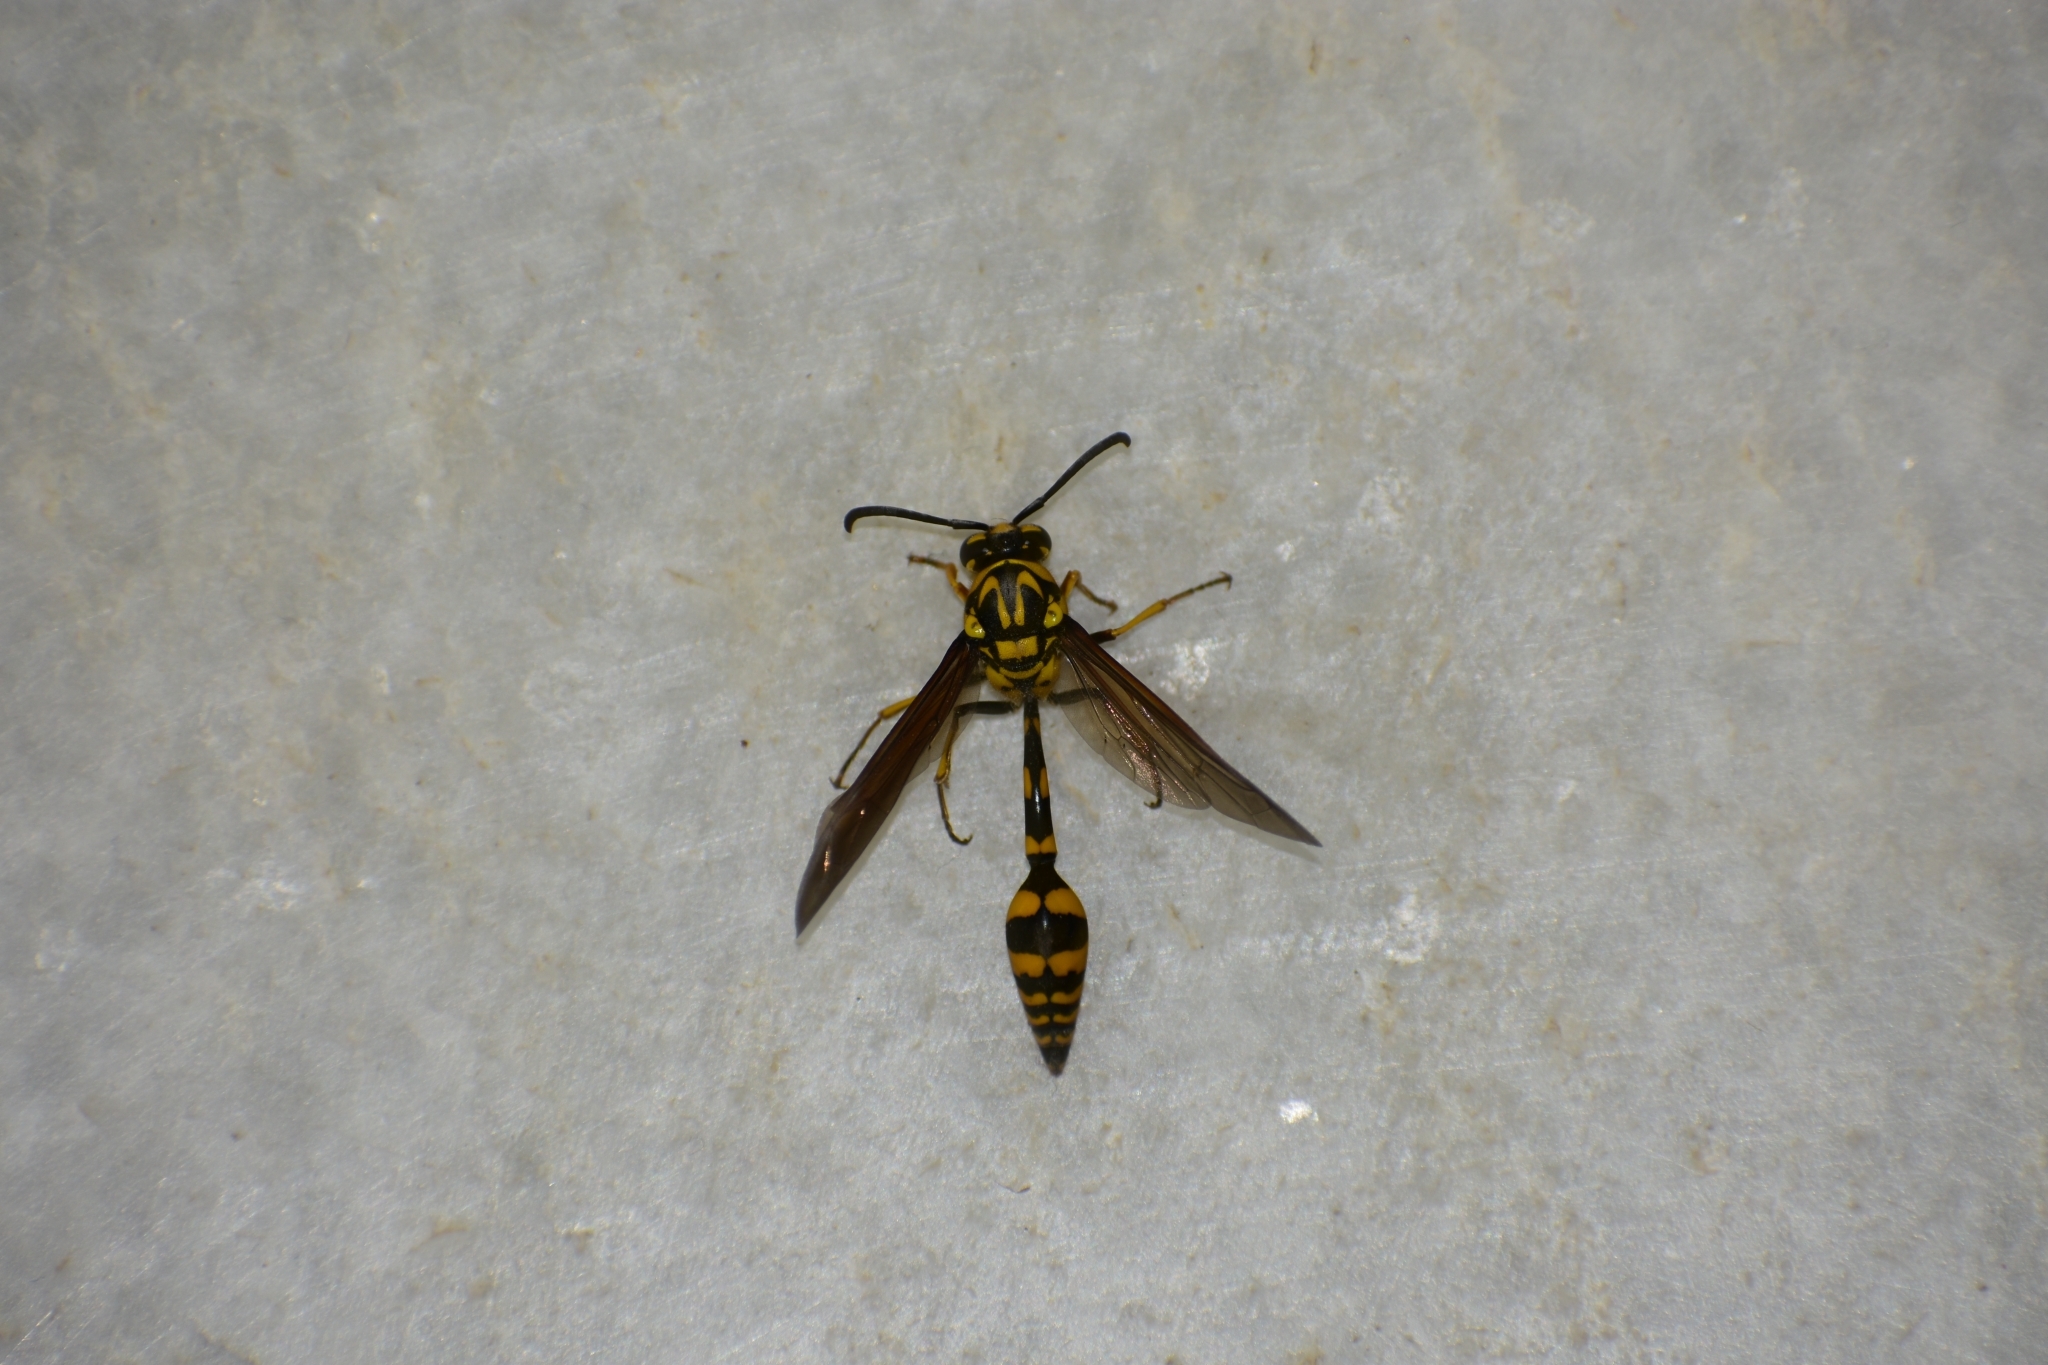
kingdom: Animalia
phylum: Arthropoda
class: Insecta
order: Hymenoptera
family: Eumenidae
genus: Phimenes
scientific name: Phimenes flavopictus
